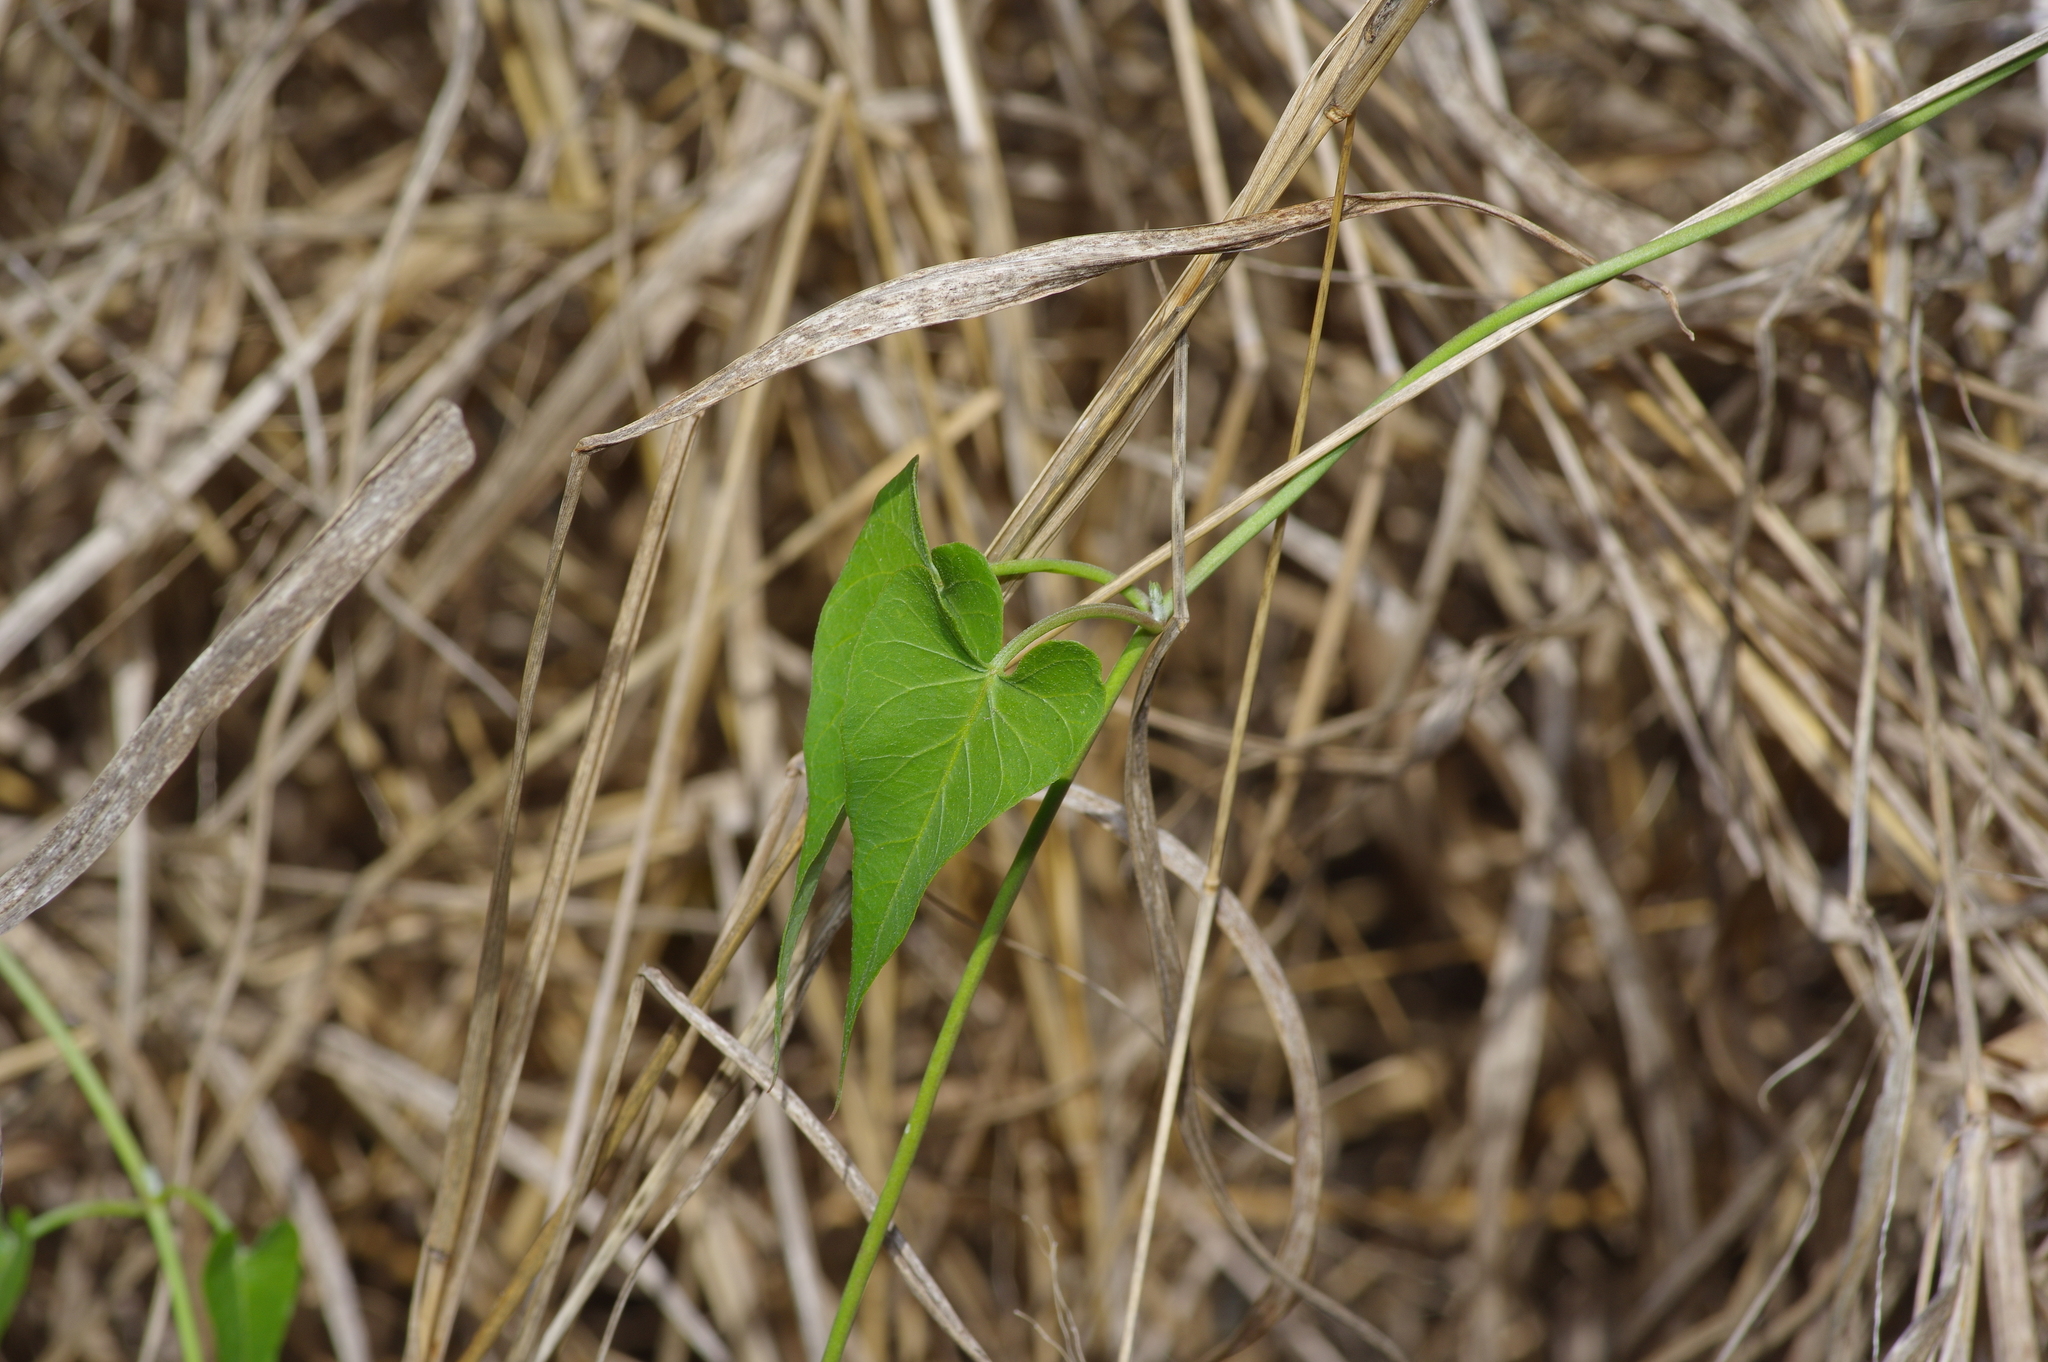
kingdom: Plantae
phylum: Tracheophyta
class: Magnoliopsida
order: Gentianales
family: Apocynaceae
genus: Funastrum
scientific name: Funastrum cynanchoides
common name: Climbing-milkweed
